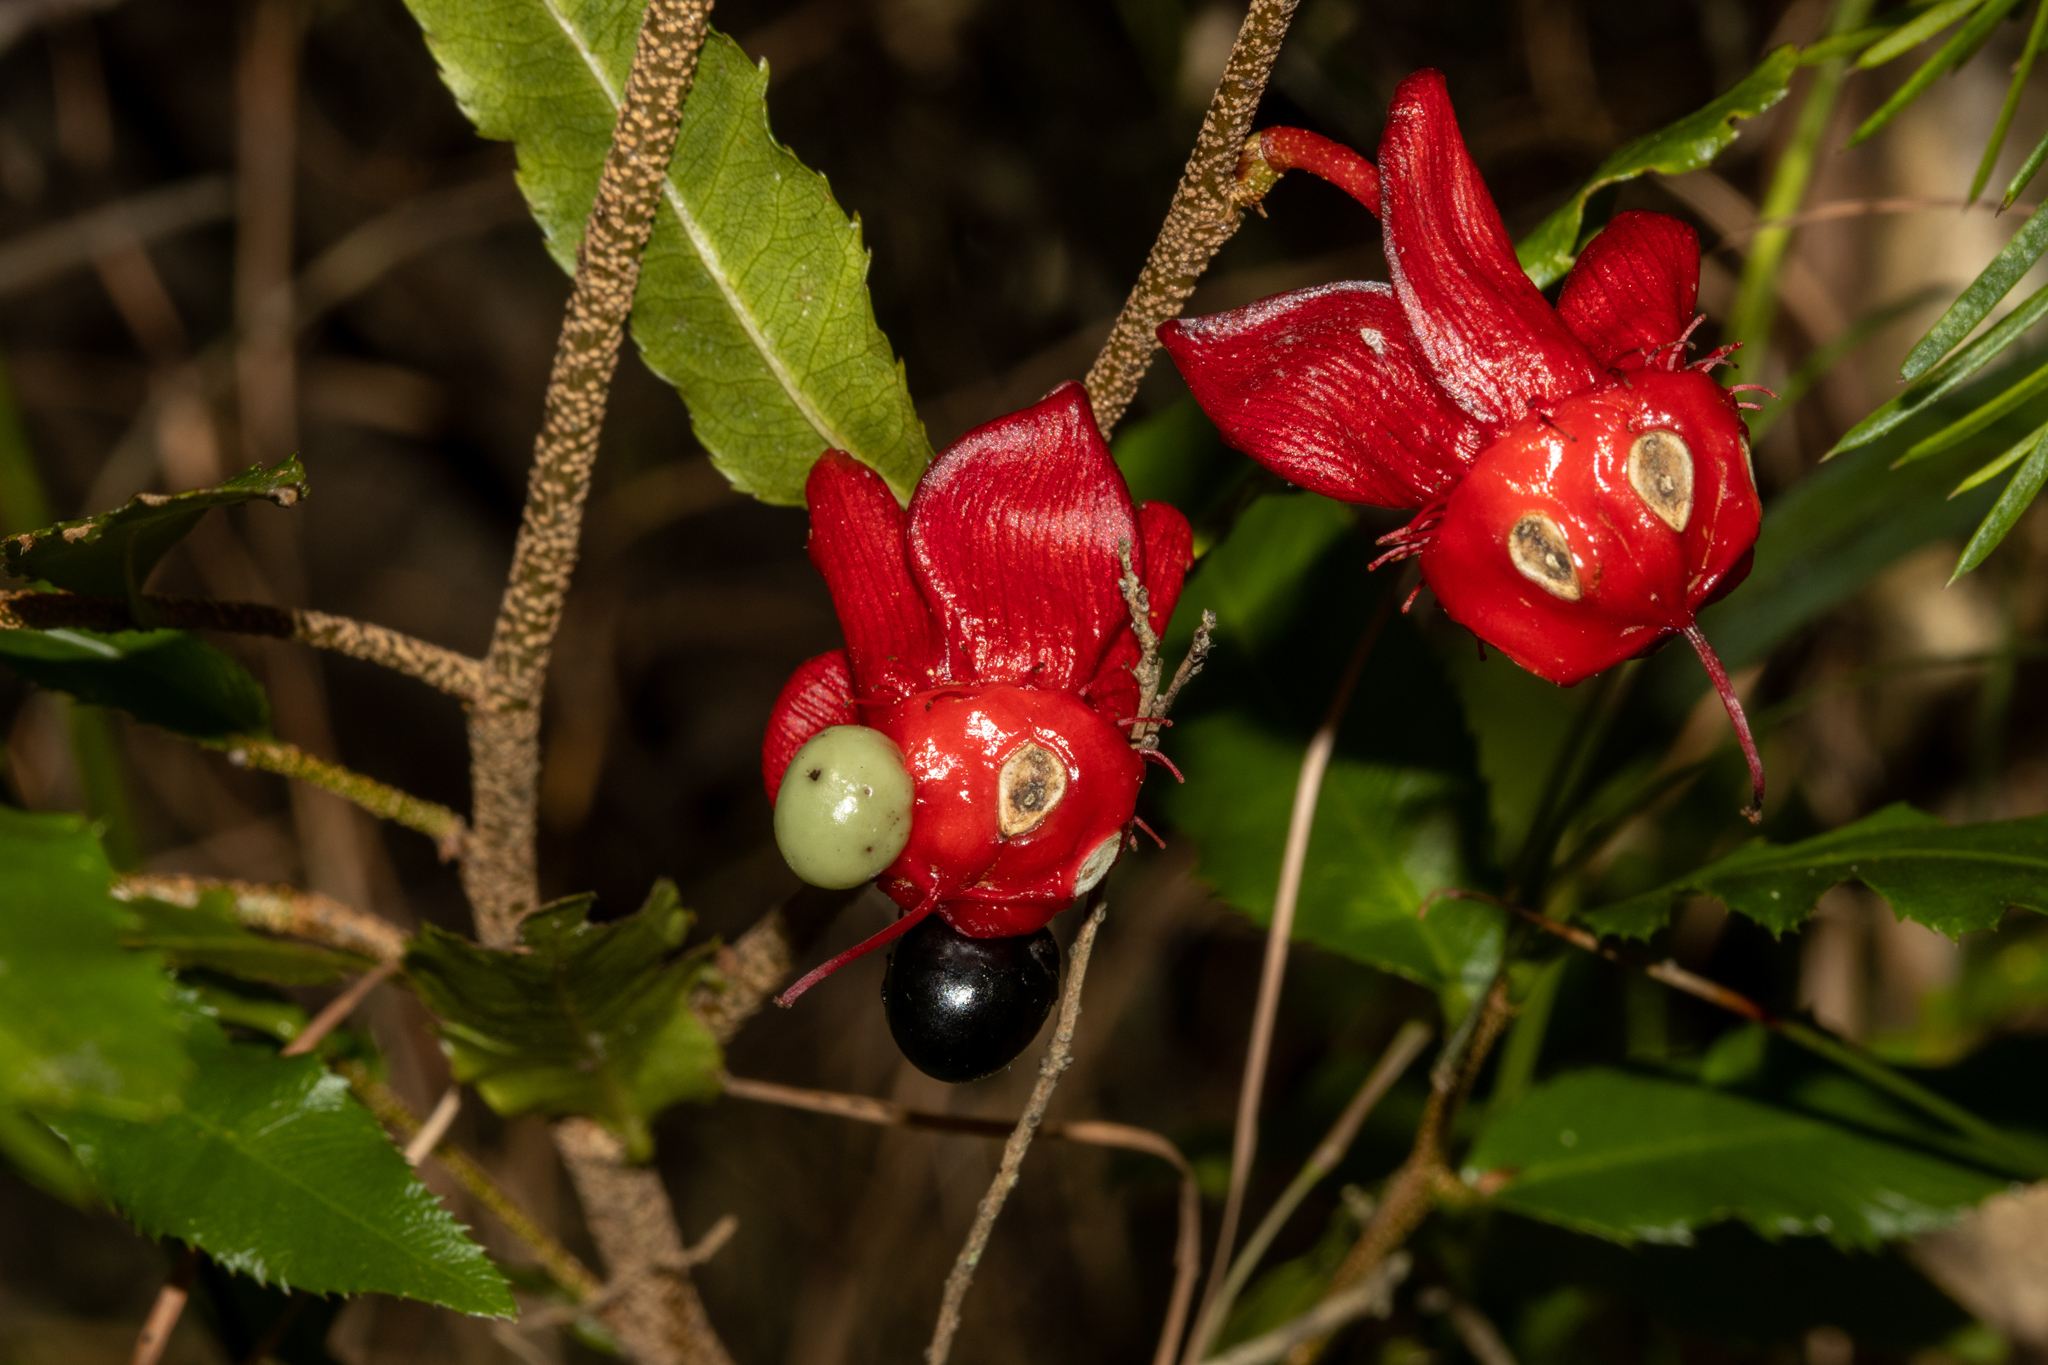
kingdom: Plantae
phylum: Tracheophyta
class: Magnoliopsida
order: Malpighiales
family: Ochnaceae
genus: Ochna
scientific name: Ochna serrulata
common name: Mickey mouse plant
